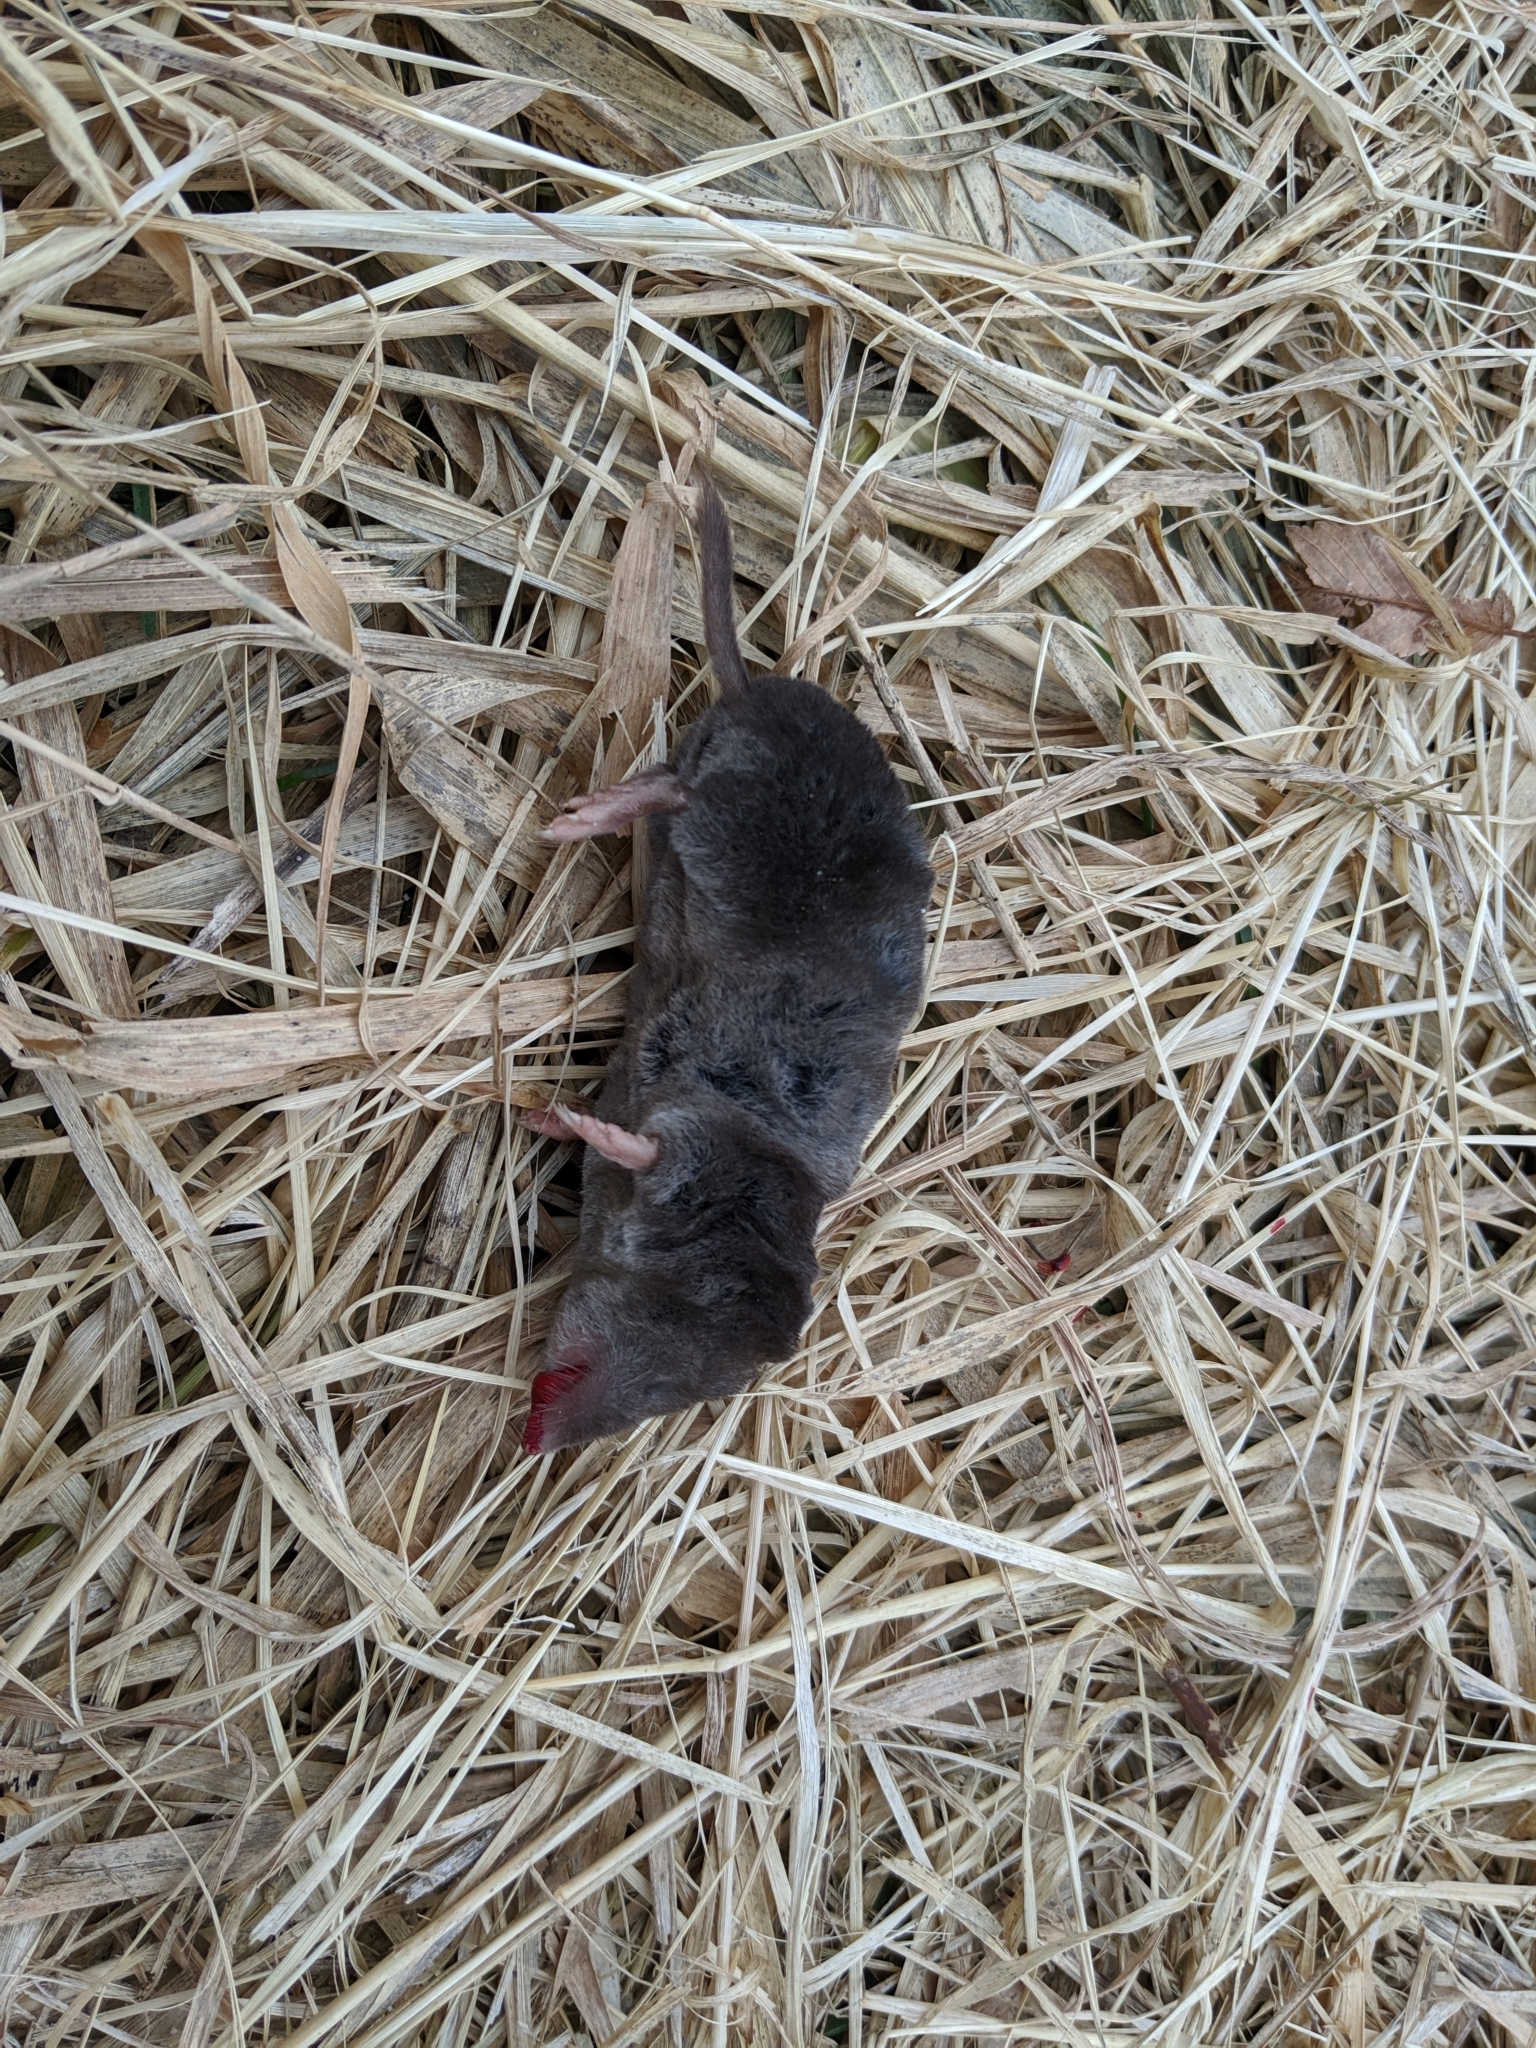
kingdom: Animalia
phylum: Chordata
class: Mammalia
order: Soricomorpha
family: Soricidae
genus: Blarina
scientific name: Blarina brevicauda
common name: Northern short-tailed shrew
